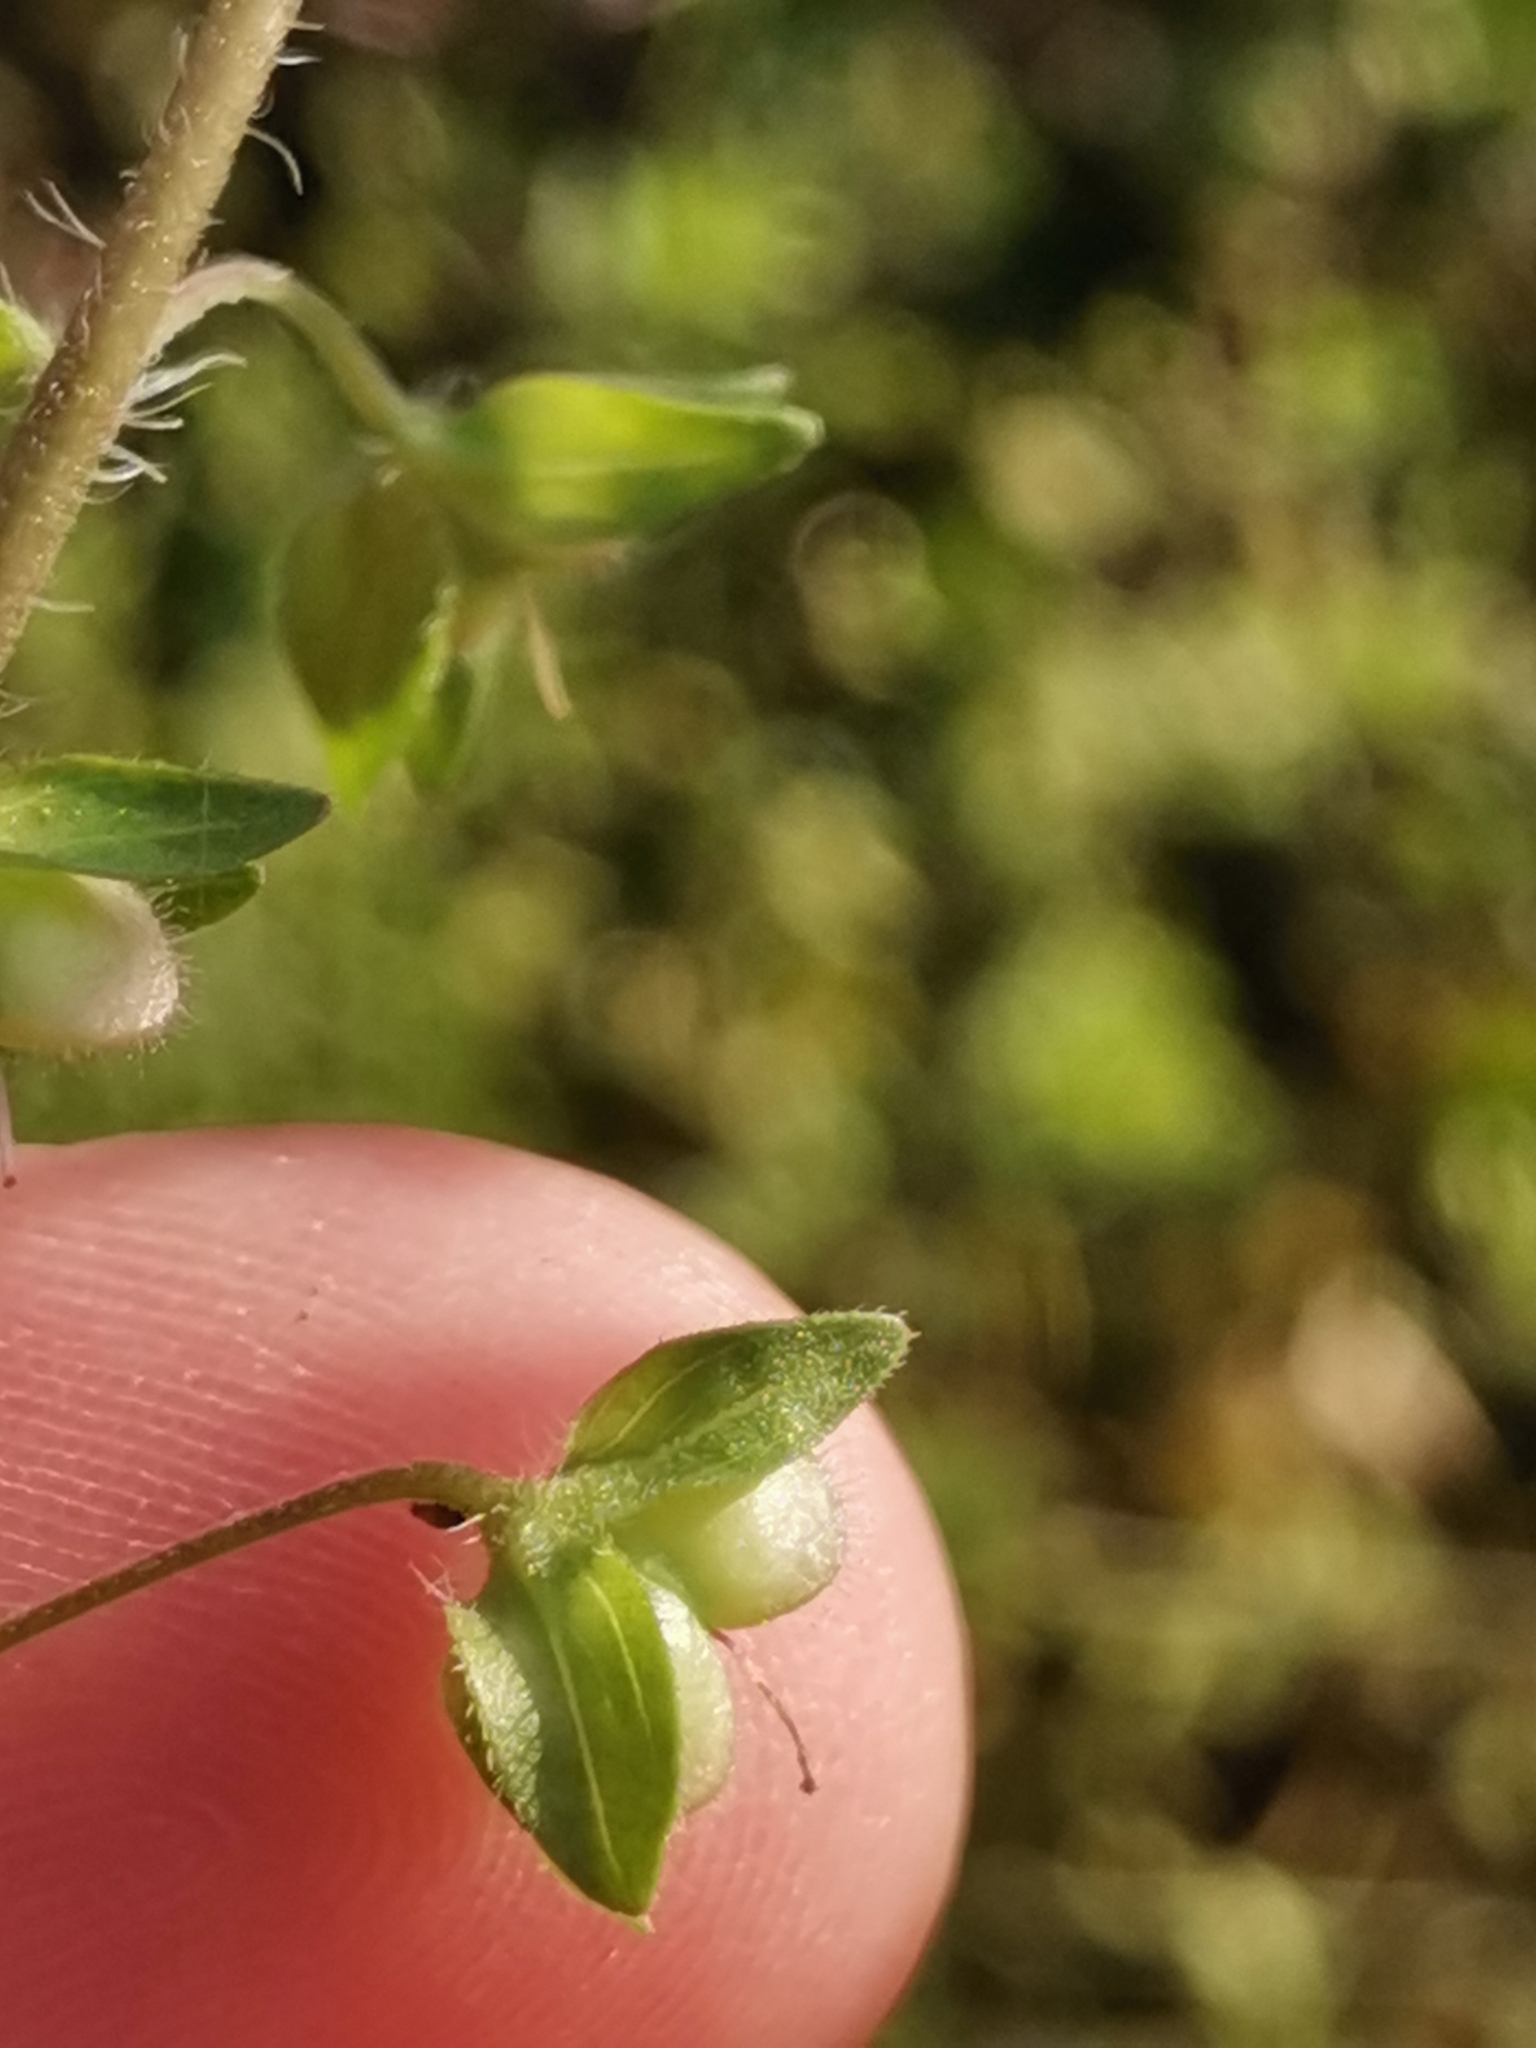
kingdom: Plantae
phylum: Tracheophyta
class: Magnoliopsida
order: Lamiales
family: Plantaginaceae
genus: Veronica
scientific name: Veronica persica
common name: Common field-speedwell
